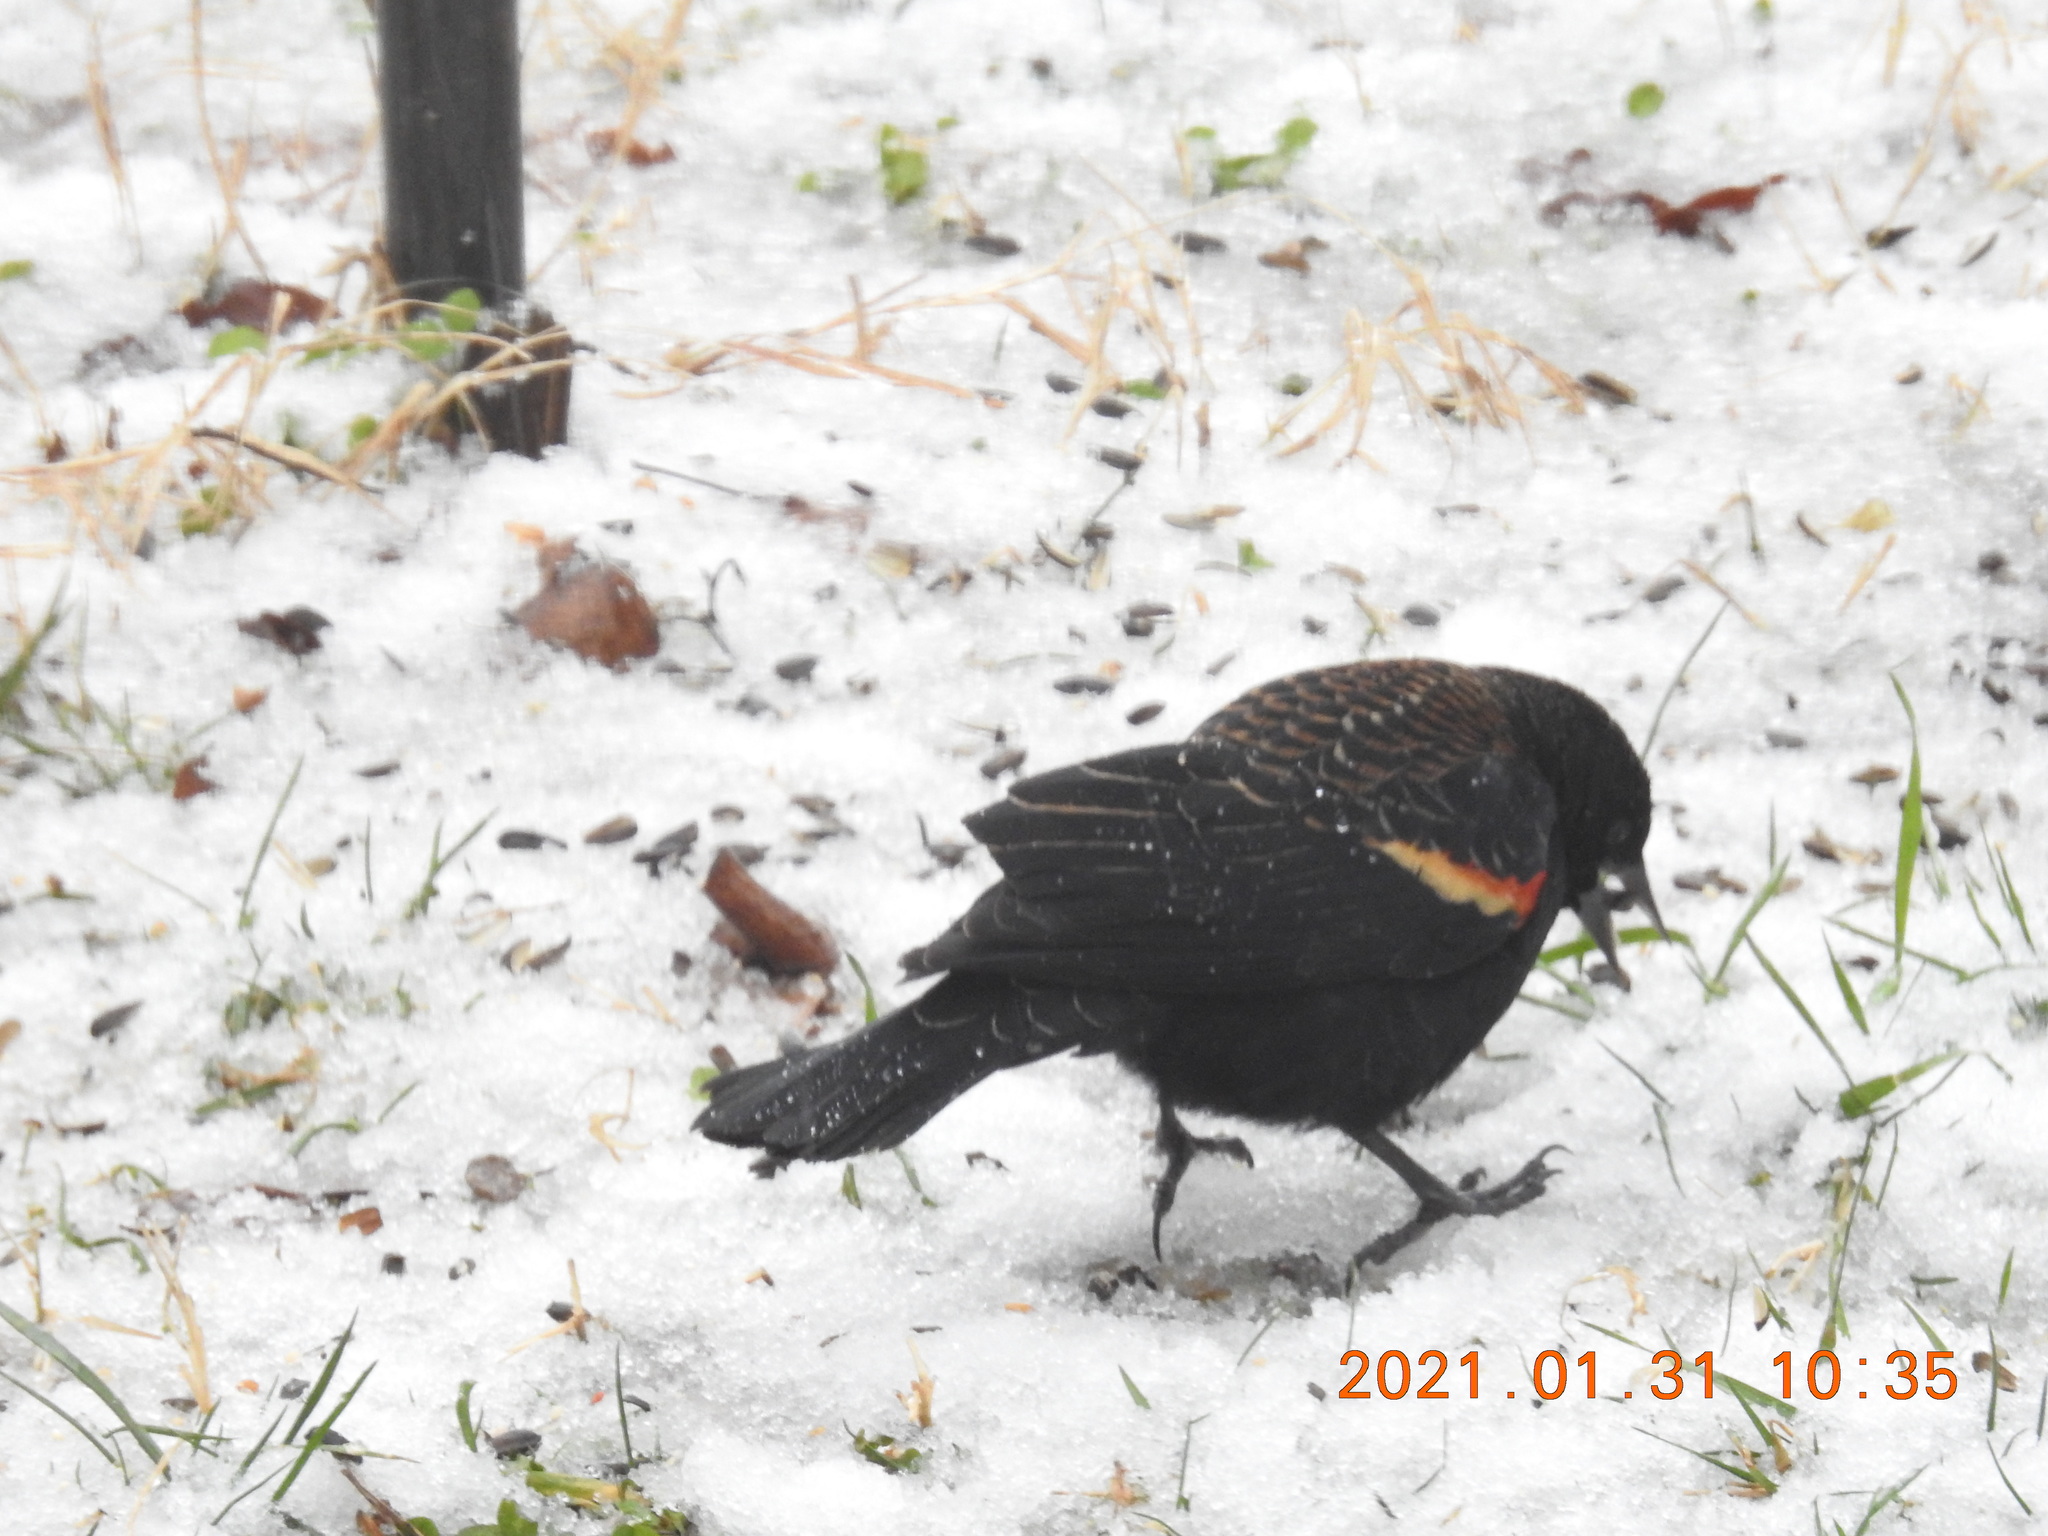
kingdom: Animalia
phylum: Chordata
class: Aves
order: Passeriformes
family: Icteridae
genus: Agelaius
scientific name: Agelaius phoeniceus
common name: Red-winged blackbird
